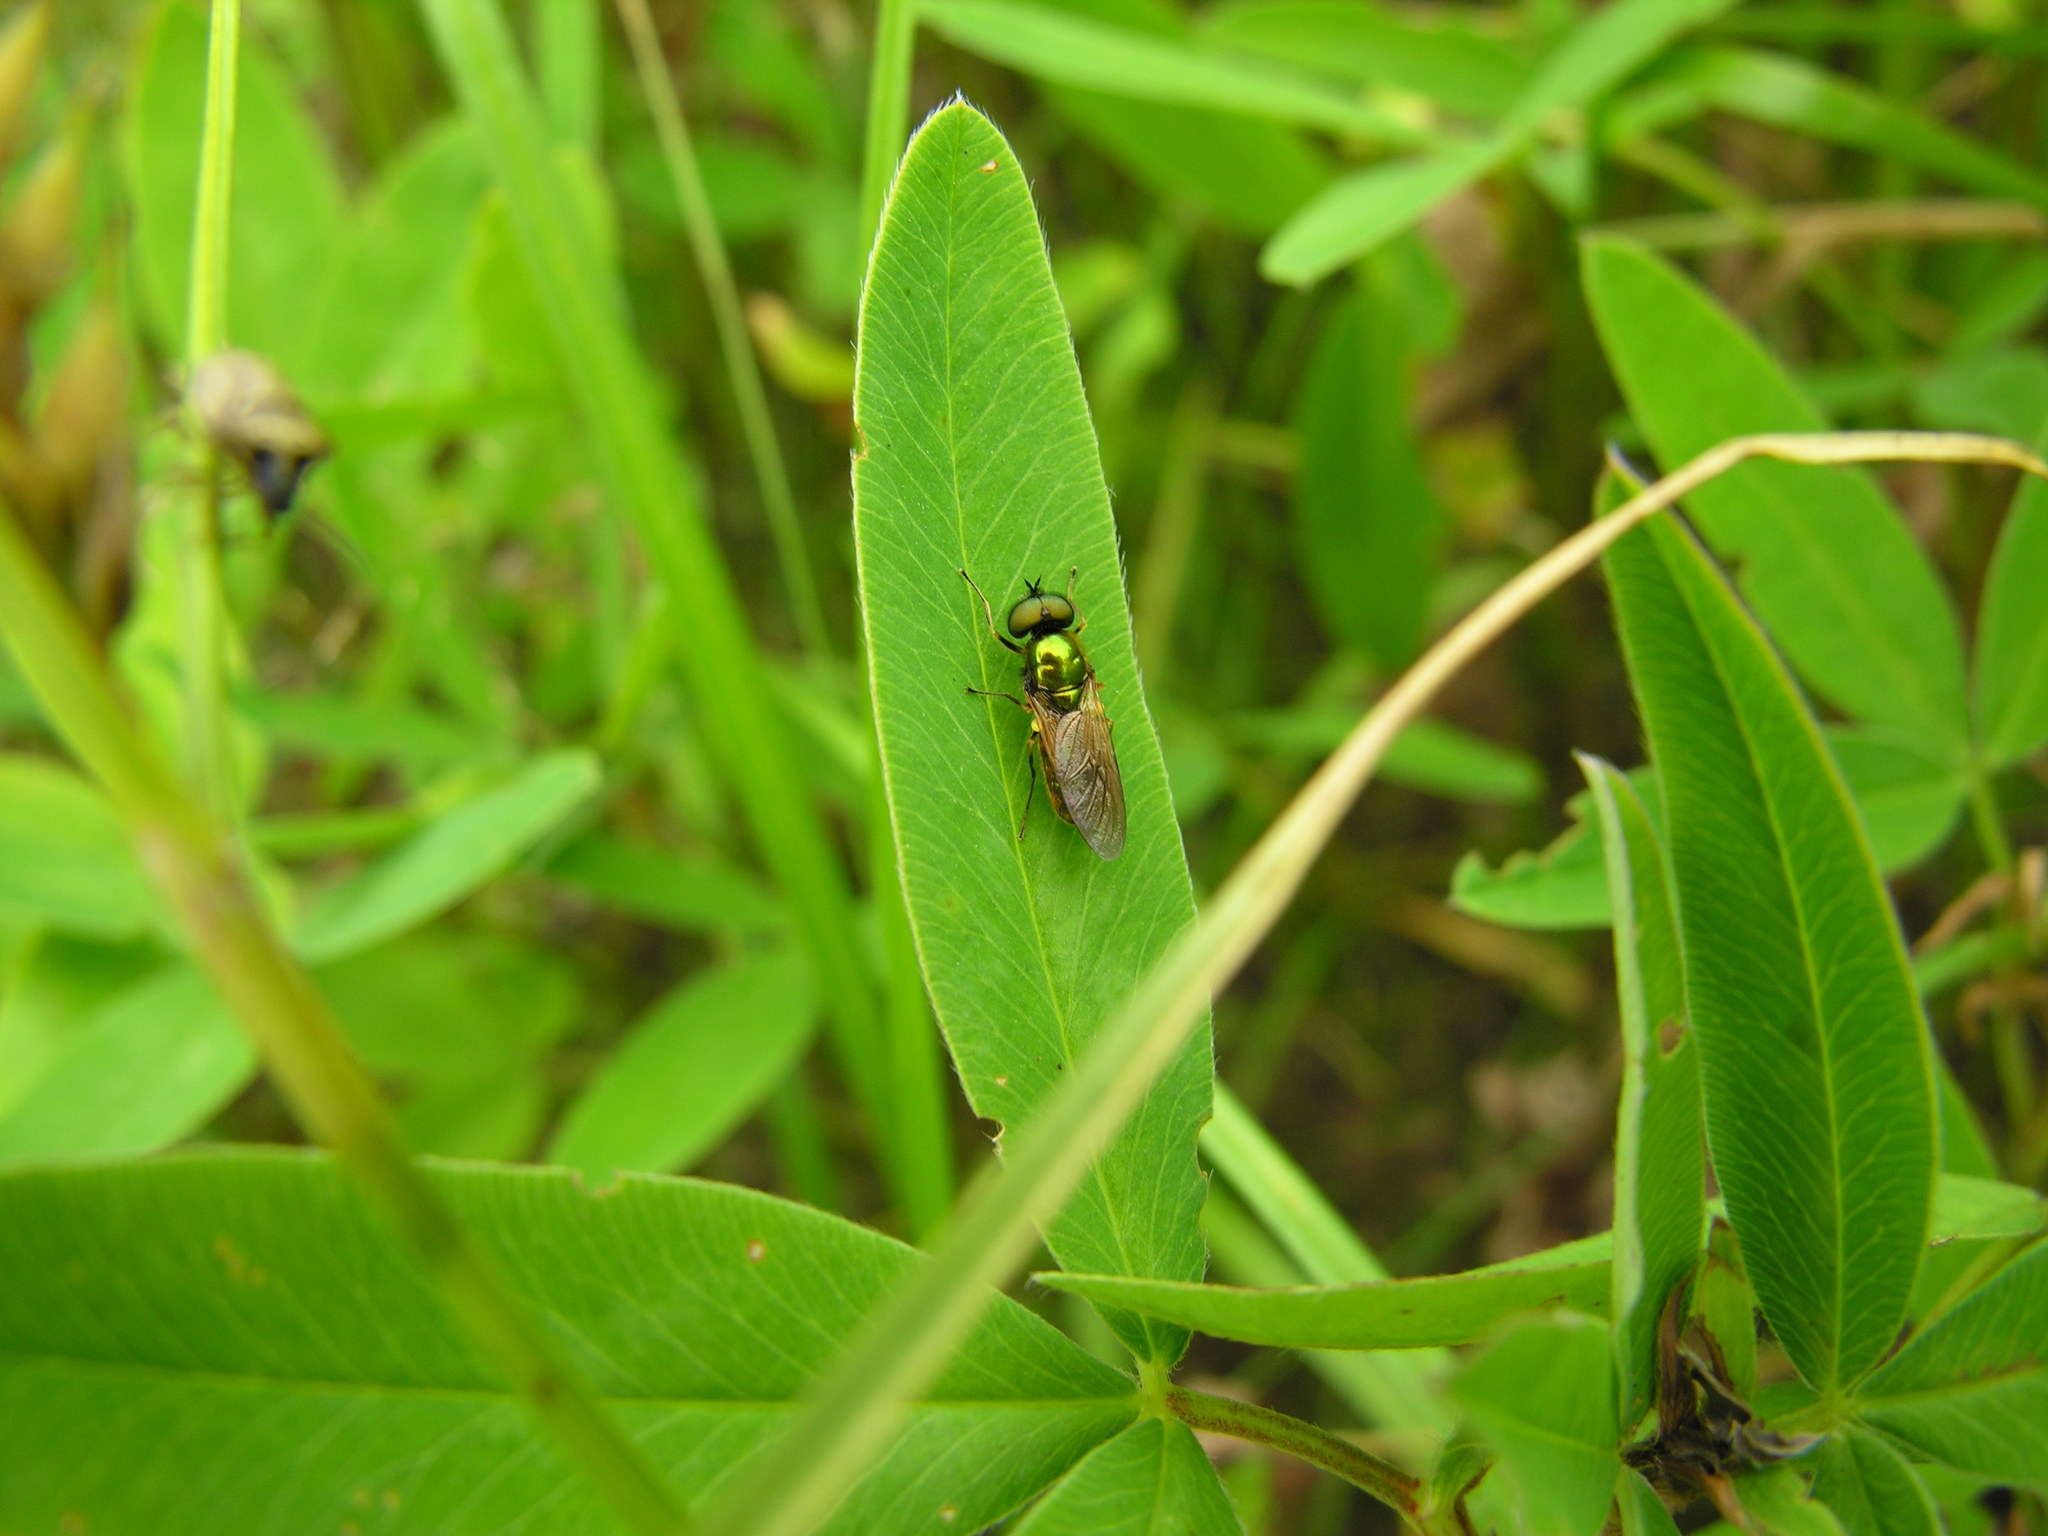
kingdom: Animalia
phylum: Arthropoda
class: Insecta
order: Diptera
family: Stratiomyidae
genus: Chloromyia
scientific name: Chloromyia formosa
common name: Soldier fly
